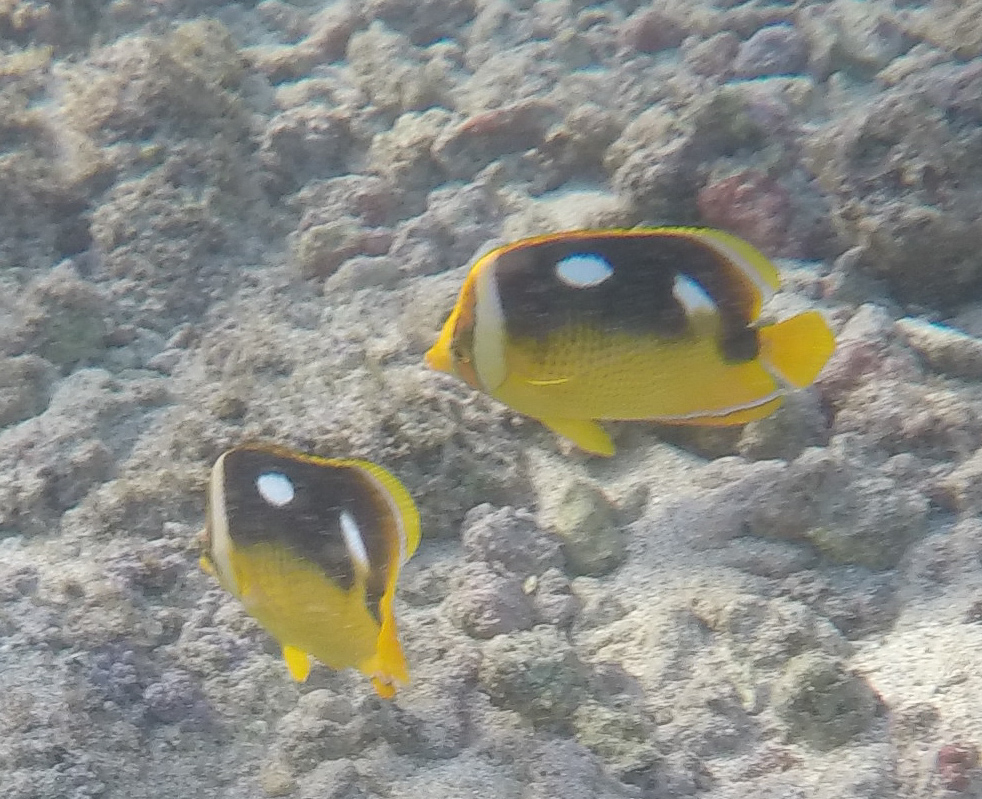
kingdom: Animalia
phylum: Chordata
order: Perciformes
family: Chaetodontidae
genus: Chaetodon
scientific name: Chaetodon quadrimaculatus
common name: Fourspot butterflyfish
